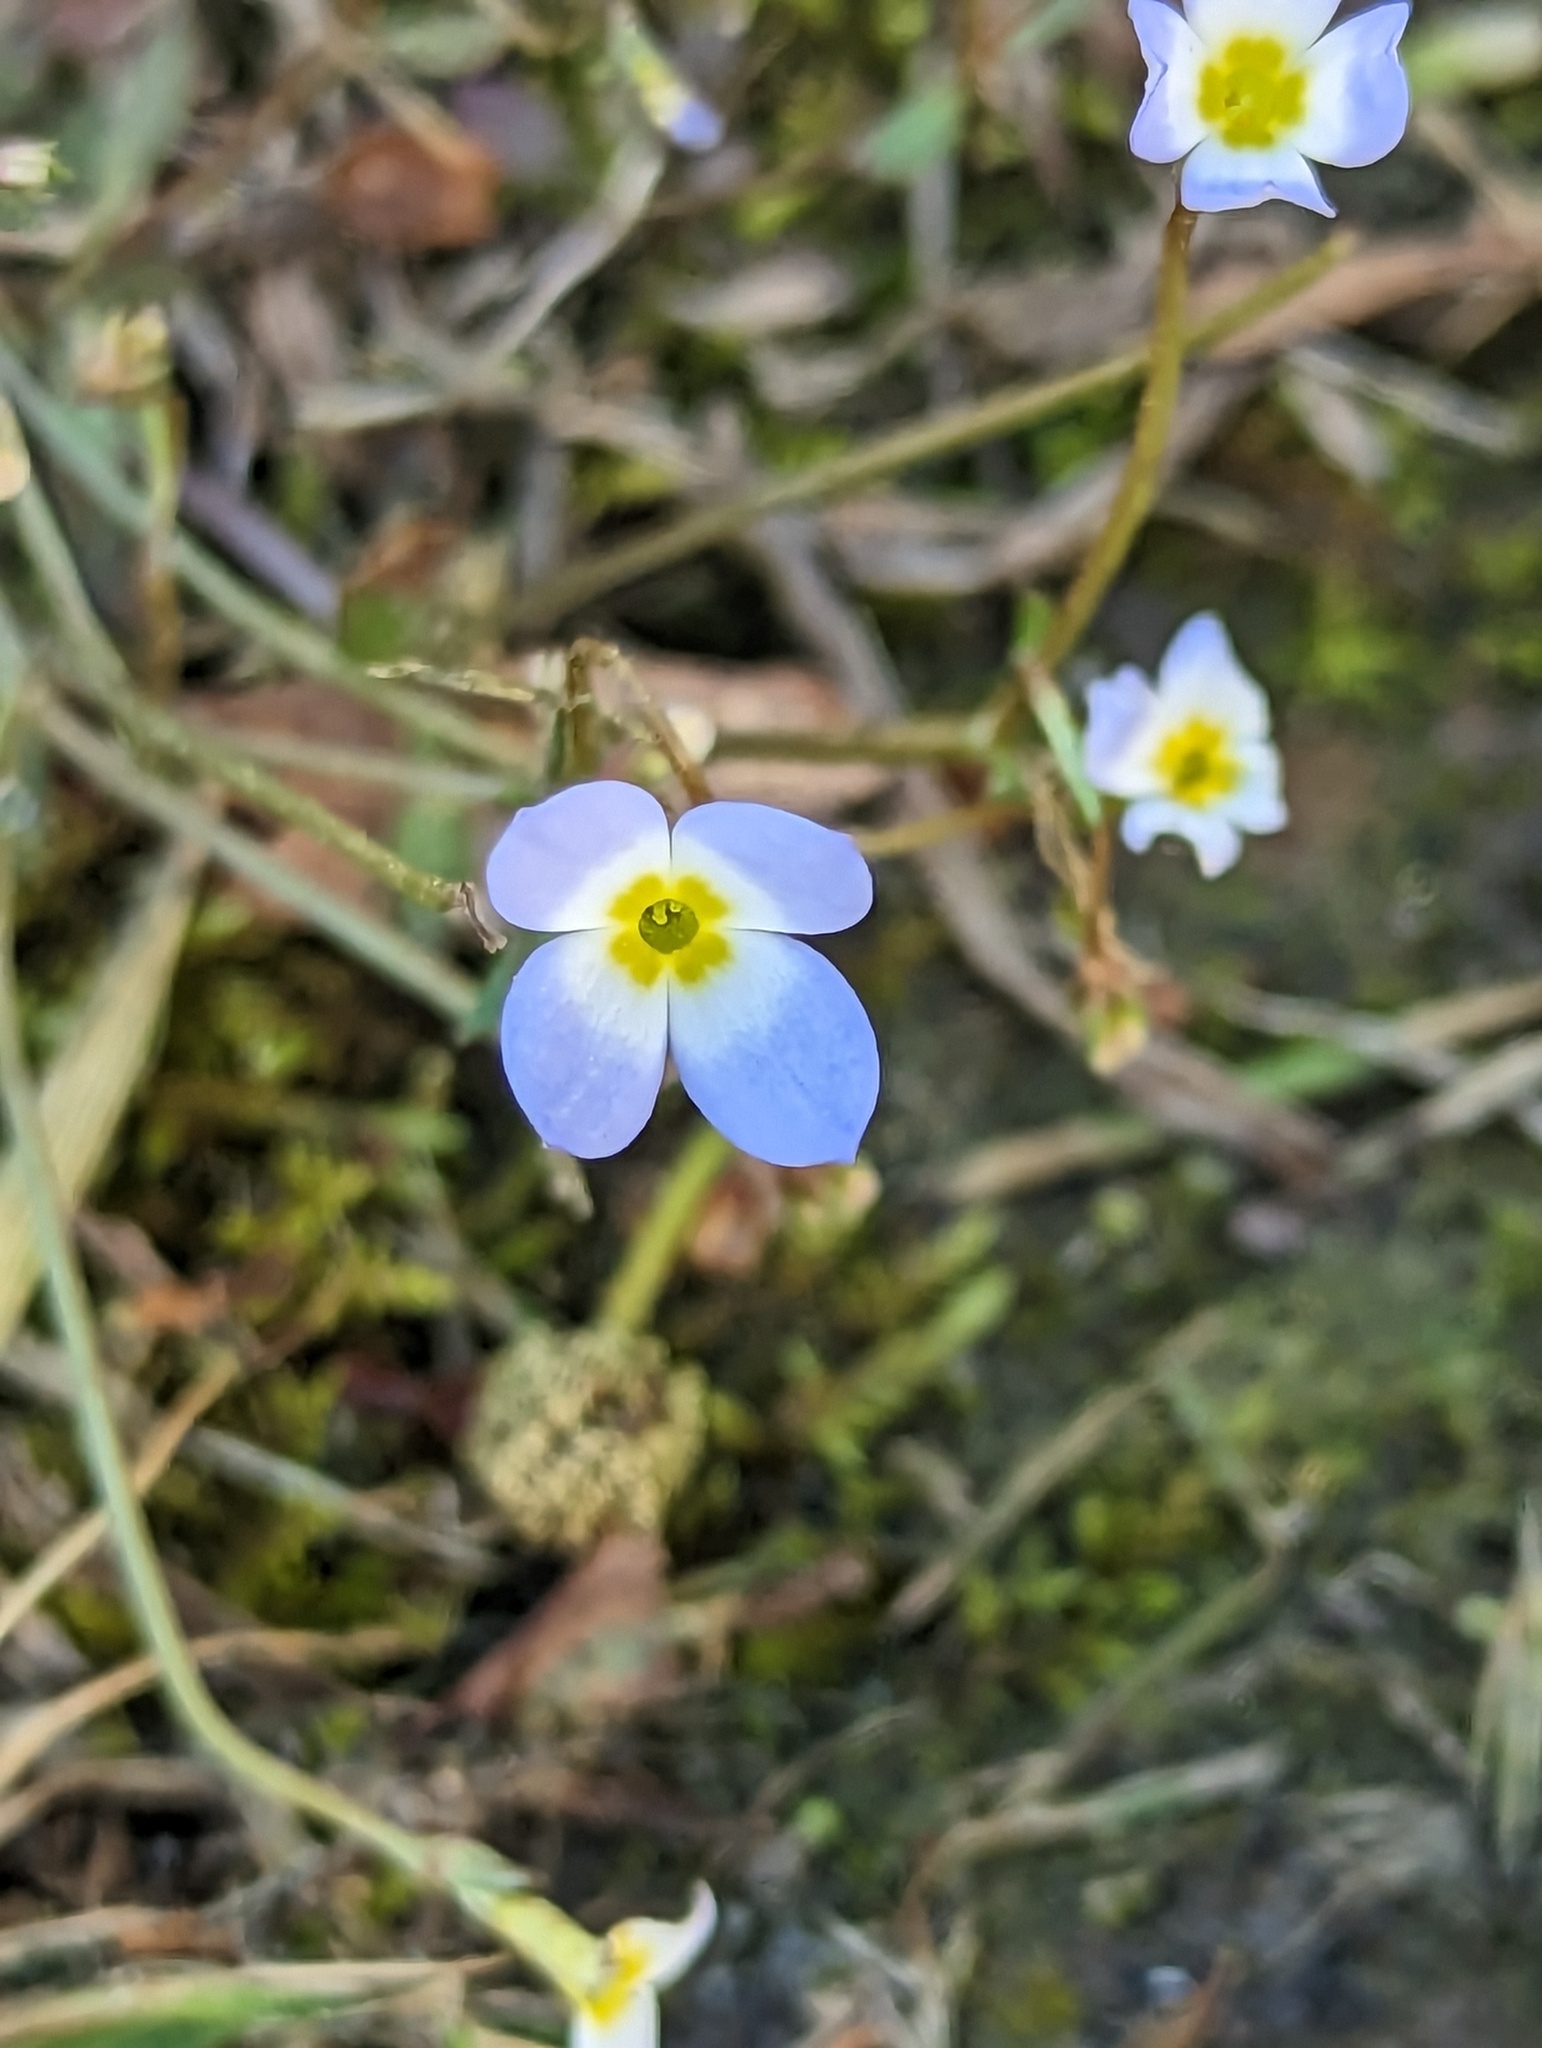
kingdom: Plantae
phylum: Tracheophyta
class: Magnoliopsida
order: Gentianales
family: Rubiaceae
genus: Houstonia
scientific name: Houstonia caerulea
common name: Bluets
